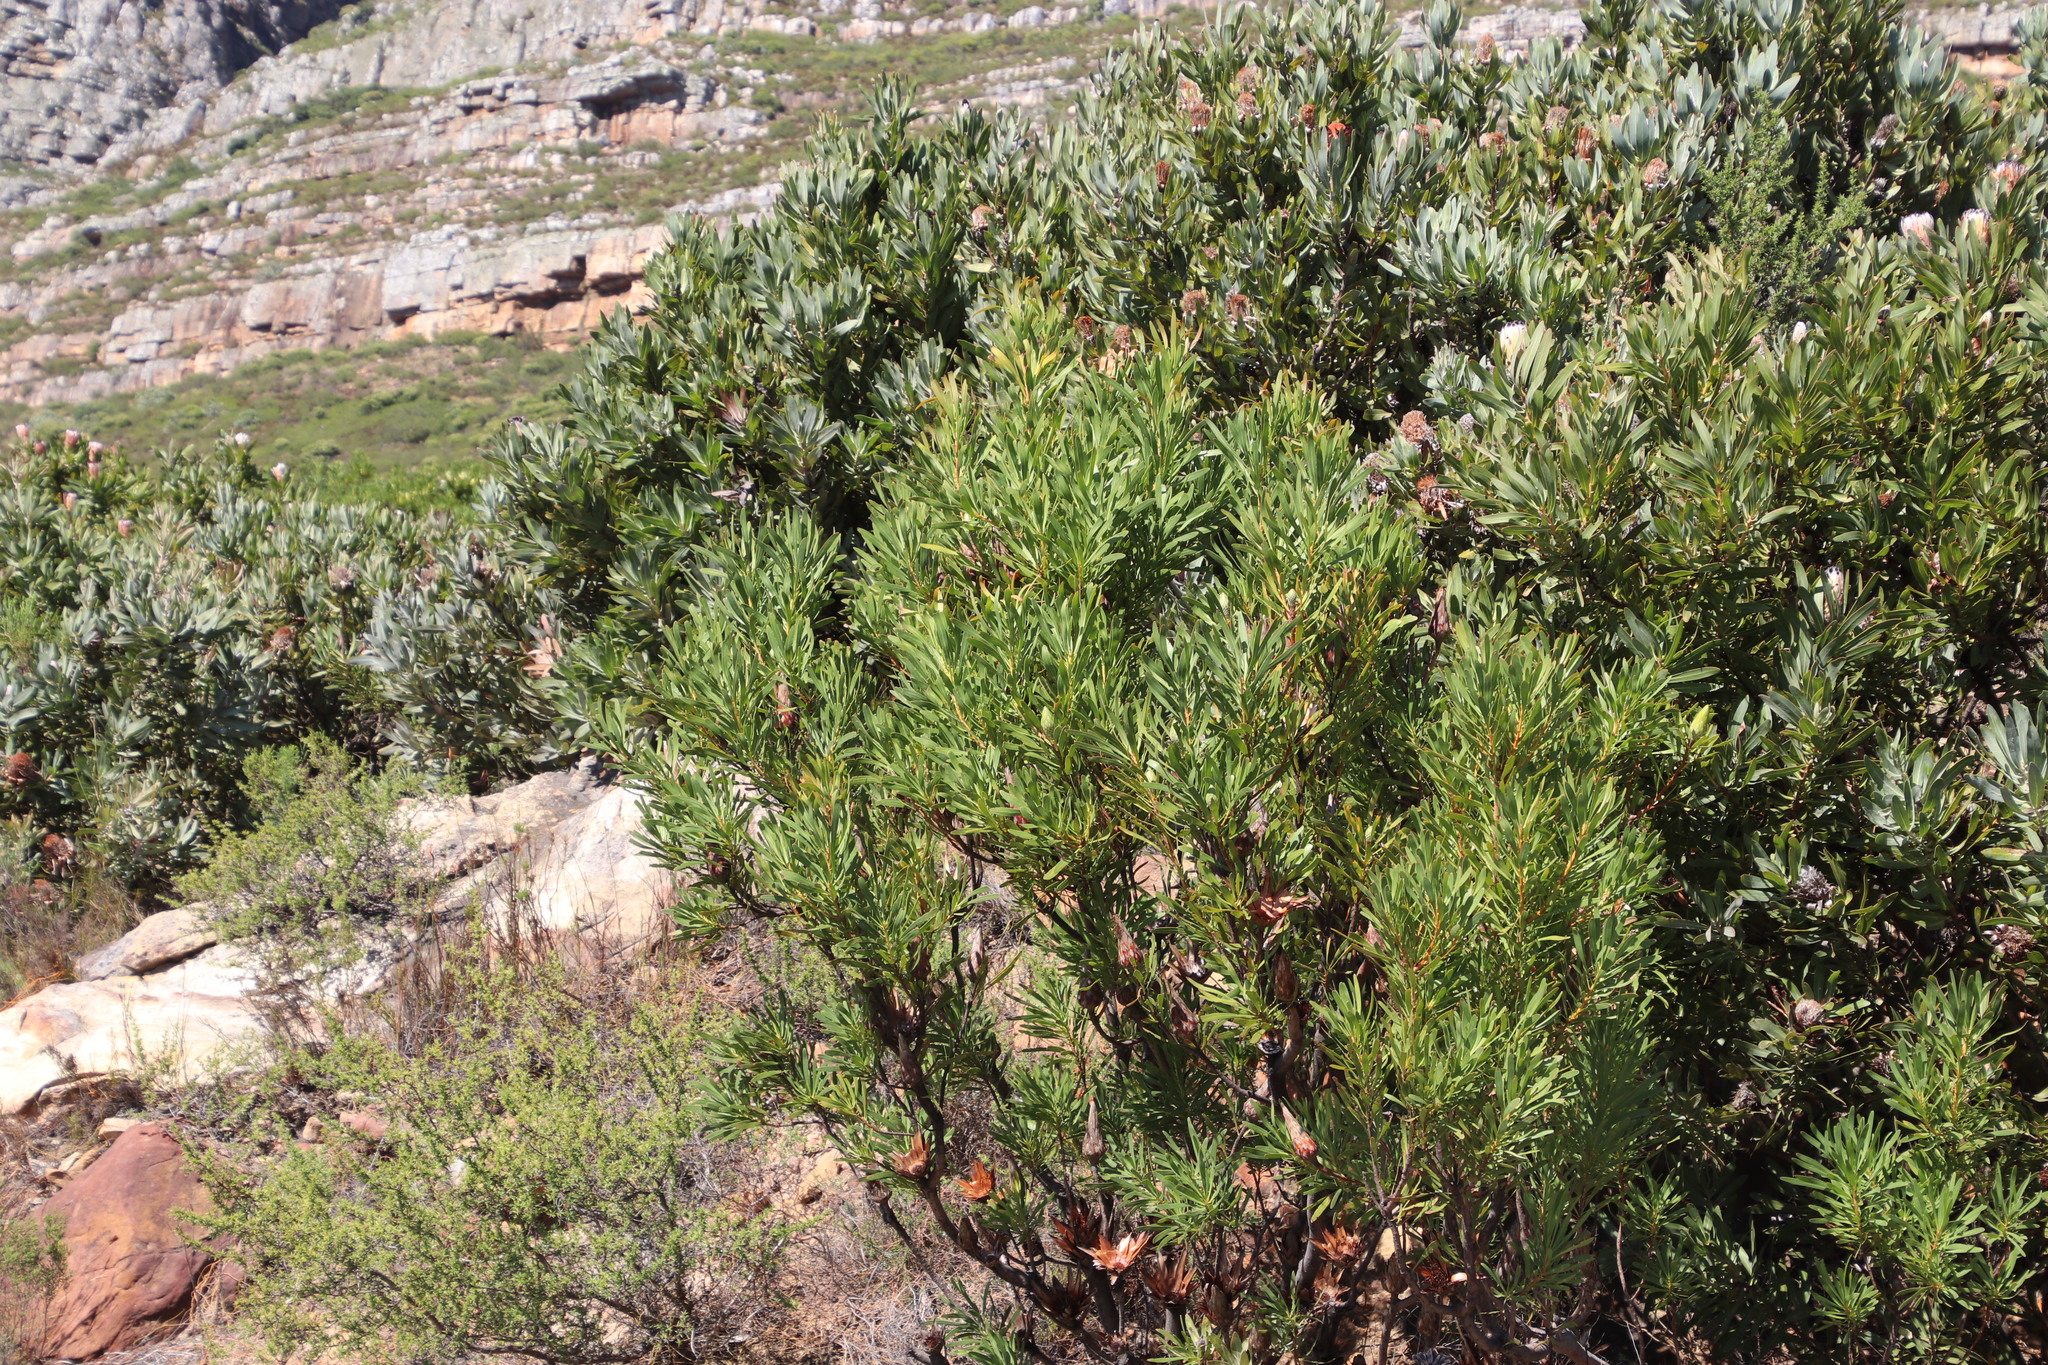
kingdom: Plantae
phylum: Tracheophyta
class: Magnoliopsida
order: Proteales
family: Proteaceae
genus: Protea
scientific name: Protea repens
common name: Sugarbush
